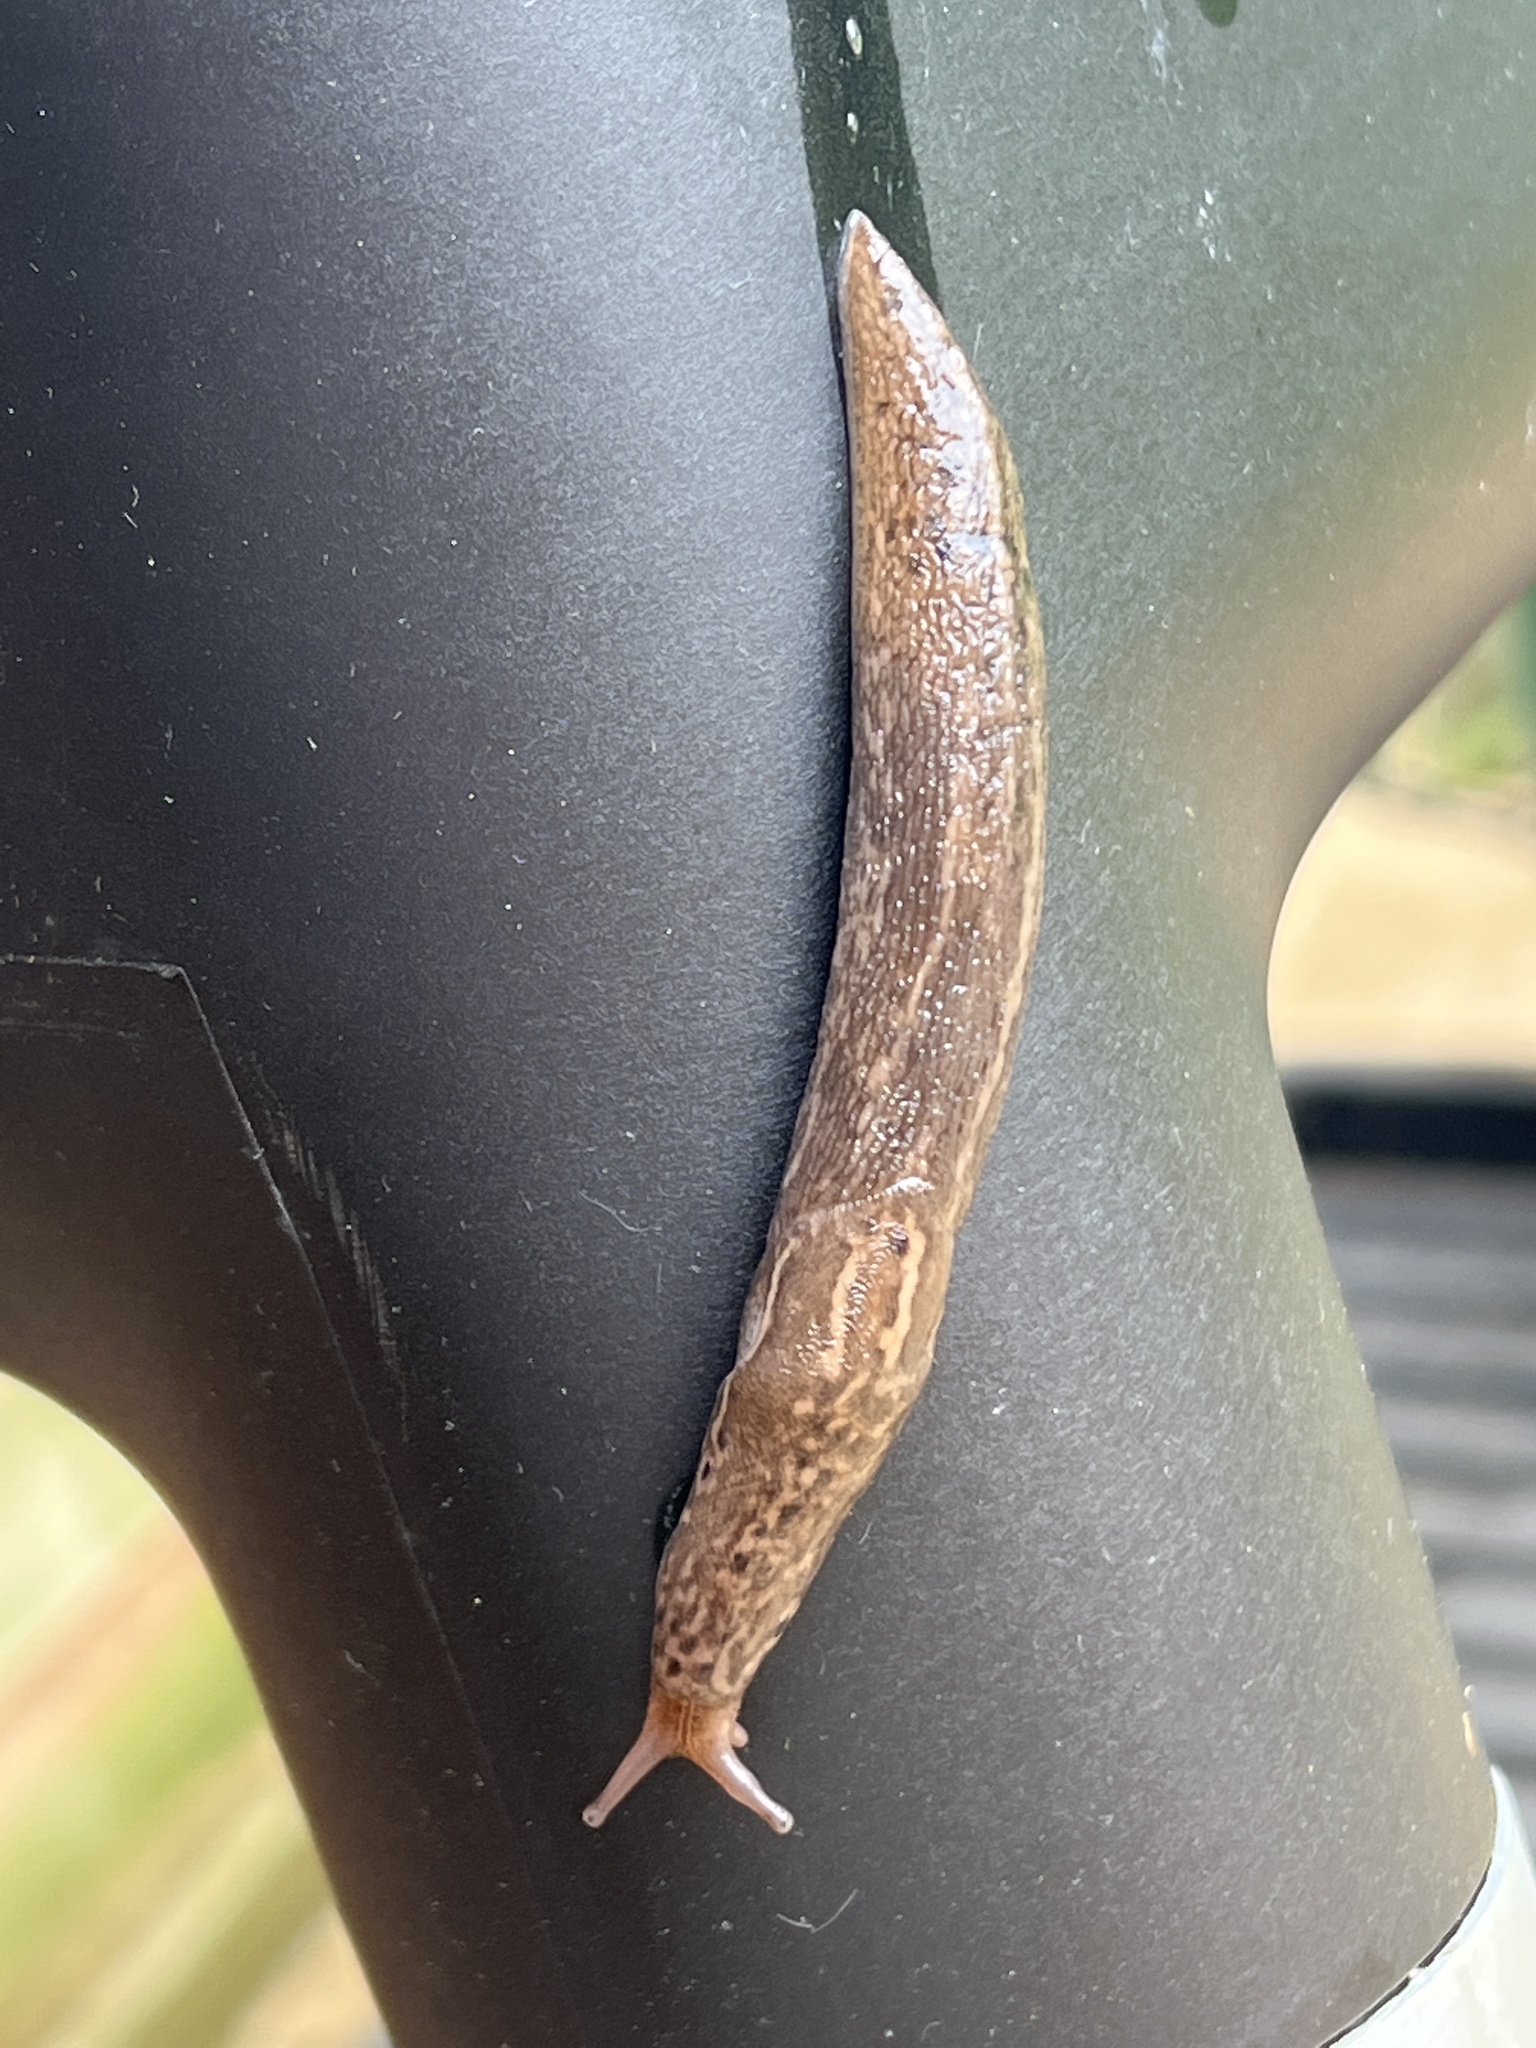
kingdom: Animalia
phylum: Mollusca
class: Gastropoda
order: Stylommatophora
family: Limacidae
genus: Limax
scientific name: Limax maximus
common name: Great grey slug
